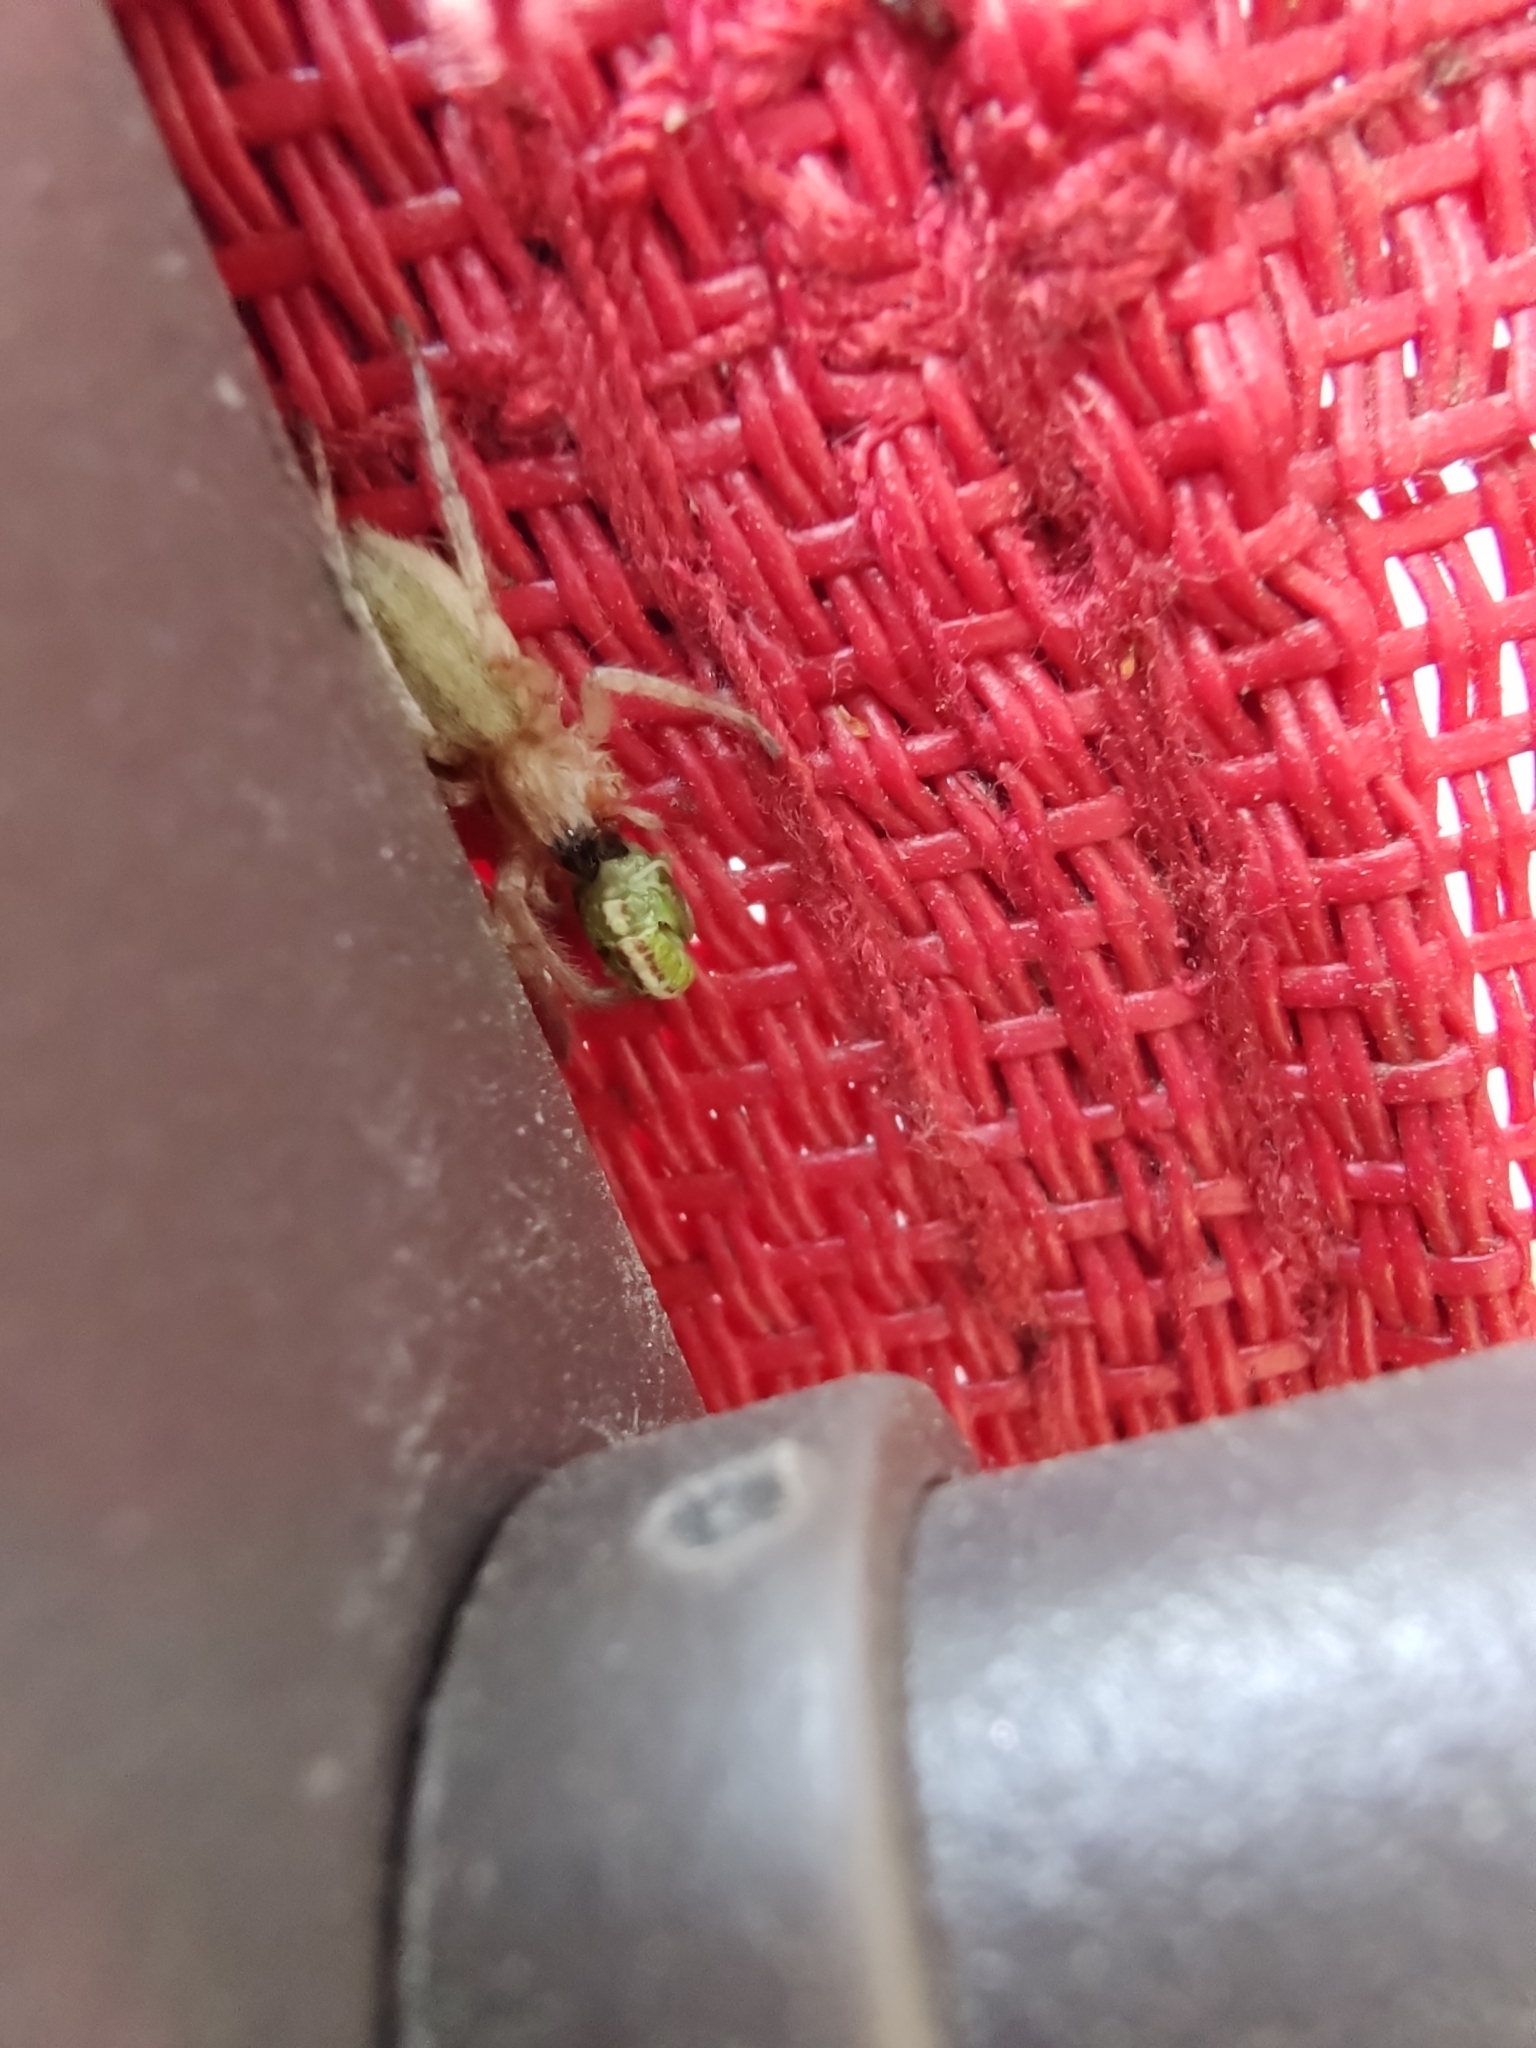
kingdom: Animalia
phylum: Arthropoda
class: Arachnida
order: Araneae
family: Anyphaenidae
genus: Hibana
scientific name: Hibana gracilis
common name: Garden ghost spider
